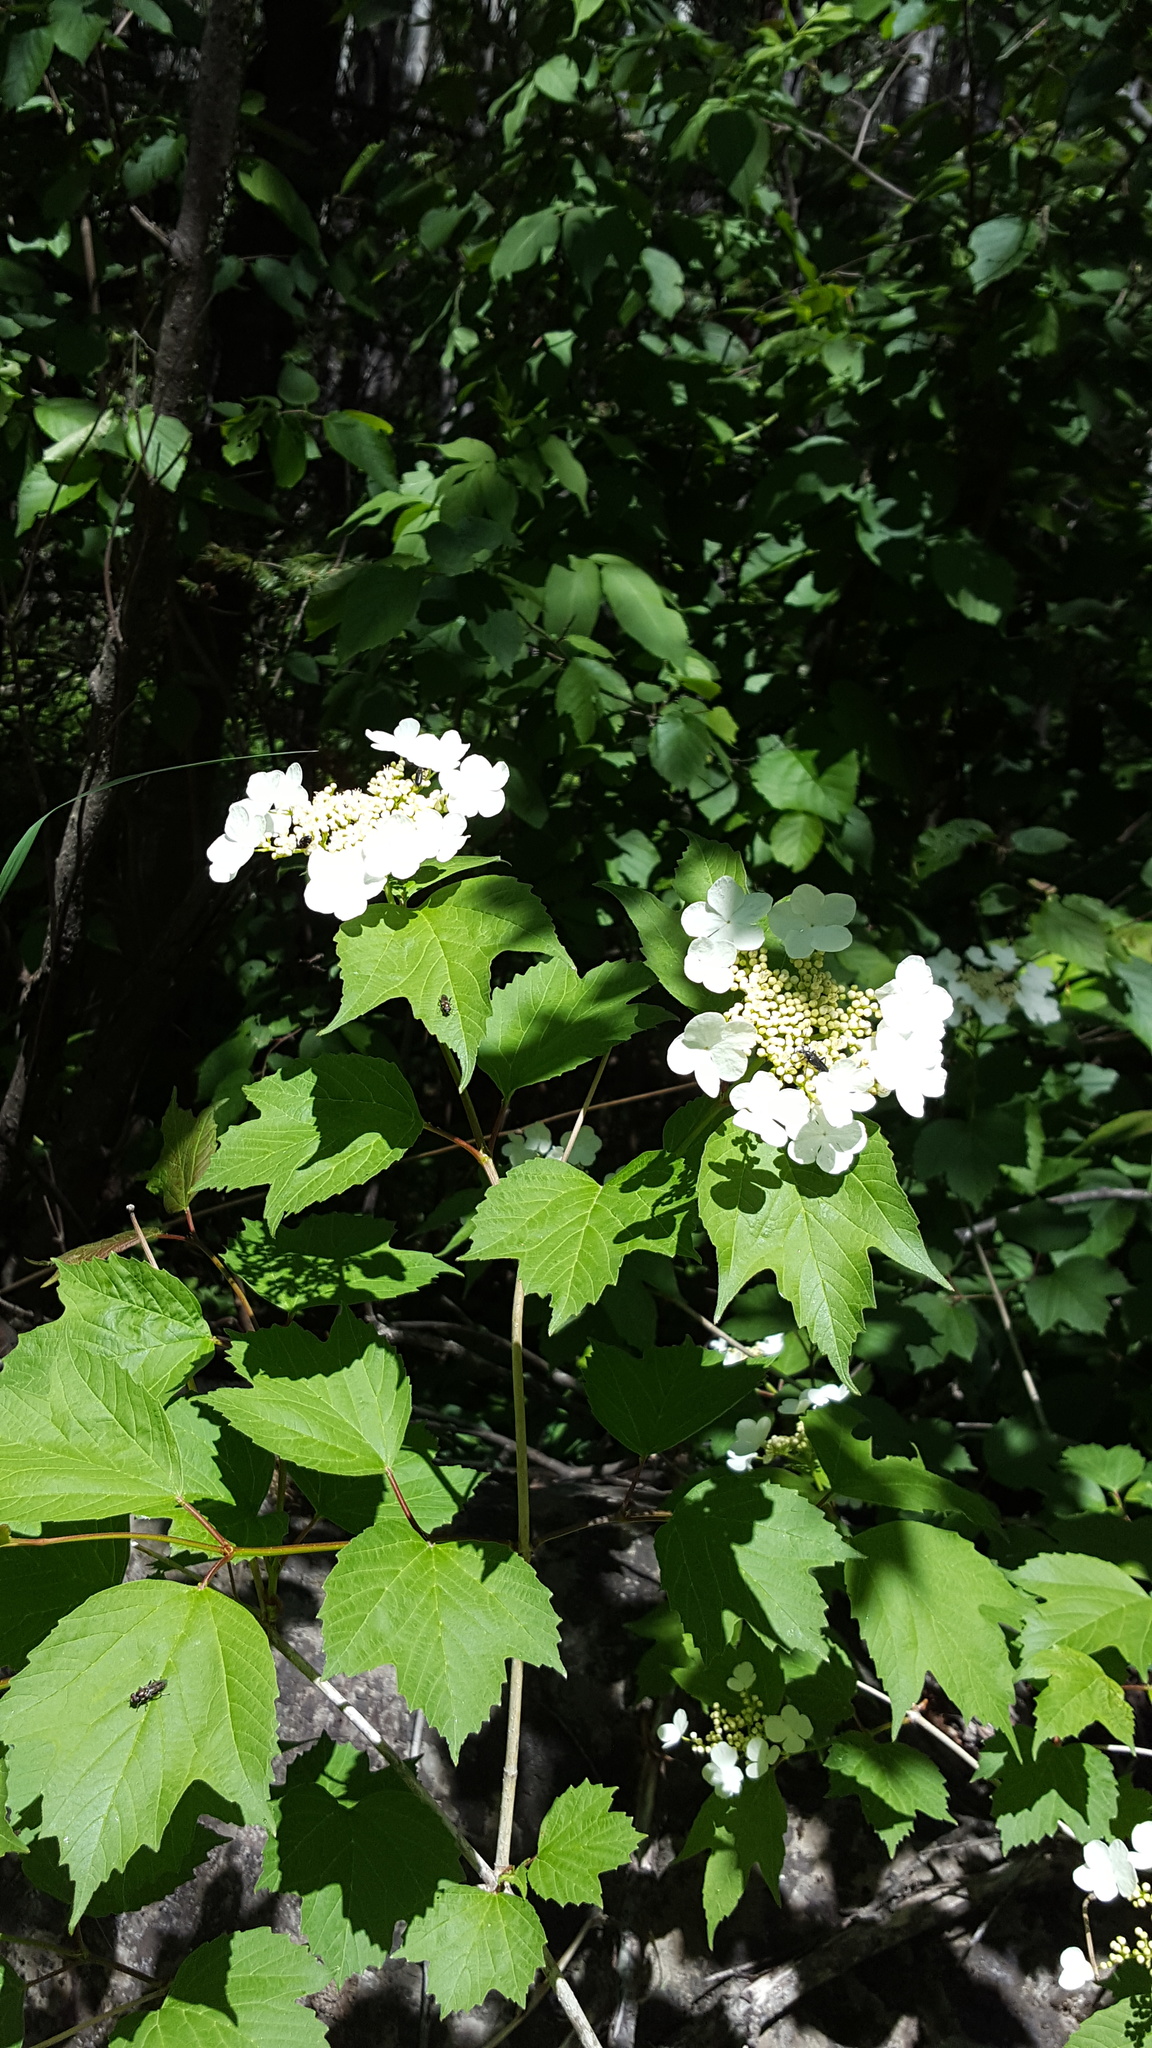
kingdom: Plantae
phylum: Tracheophyta
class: Magnoliopsida
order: Dipsacales
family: Viburnaceae
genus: Viburnum
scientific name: Viburnum trilobum
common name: American cranberrybush
